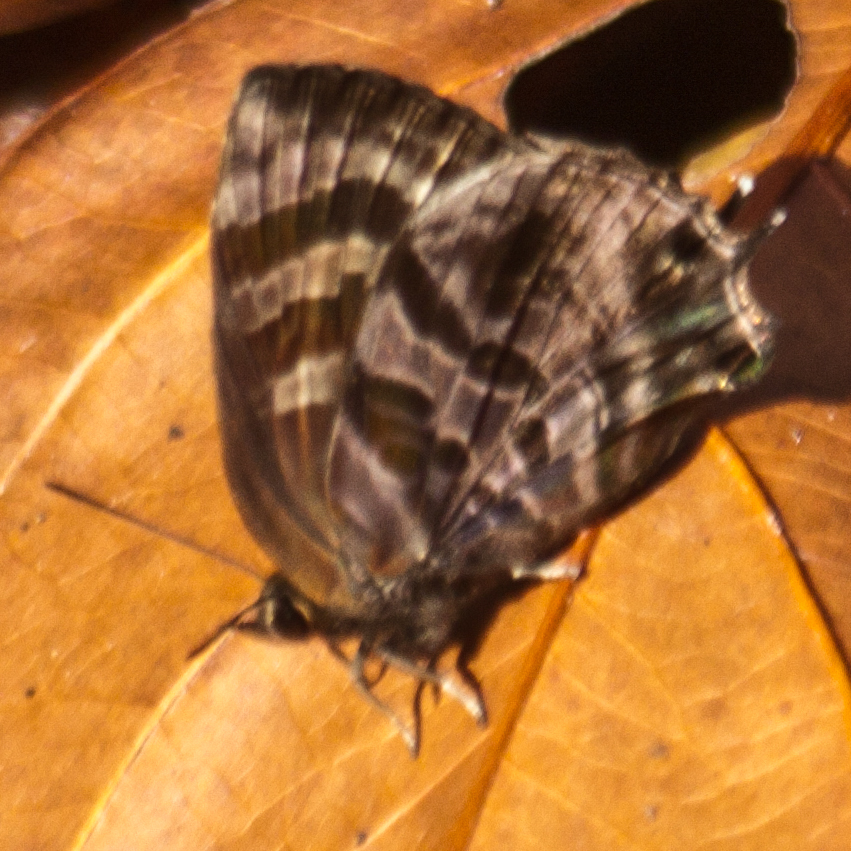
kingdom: Animalia
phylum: Arthropoda
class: Insecta
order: Lepidoptera
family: Lycaenidae
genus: Flos
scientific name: Flos
